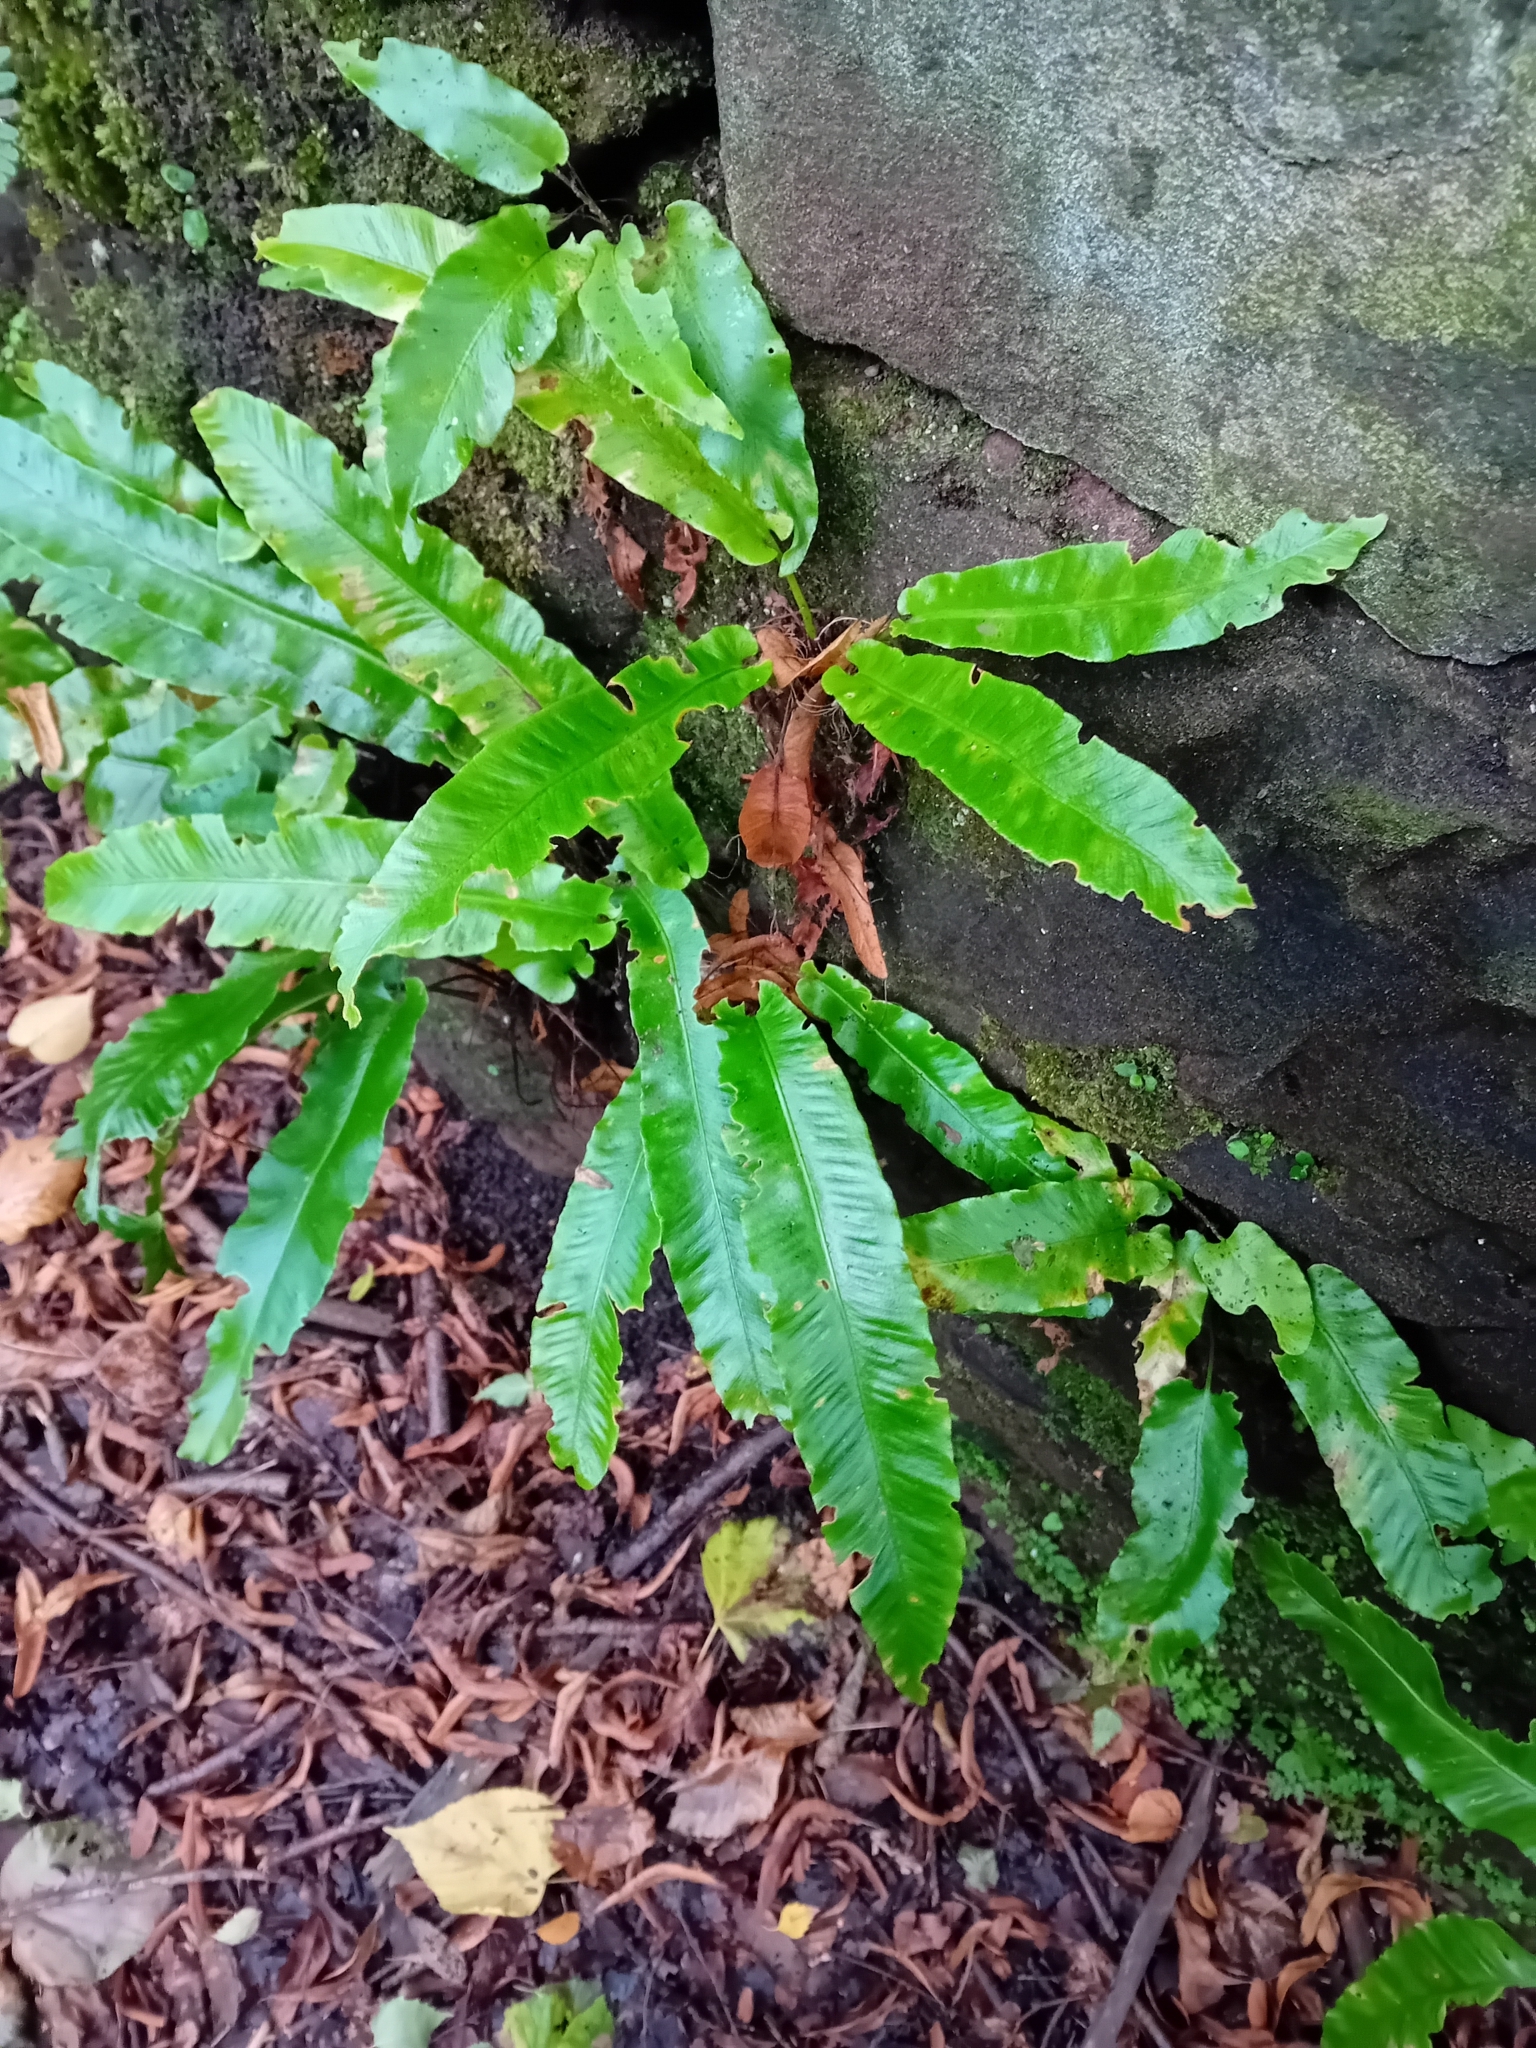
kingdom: Plantae
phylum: Tracheophyta
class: Polypodiopsida
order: Polypodiales
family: Aspleniaceae
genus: Asplenium
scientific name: Asplenium scolopendrium
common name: Hart's-tongue fern
